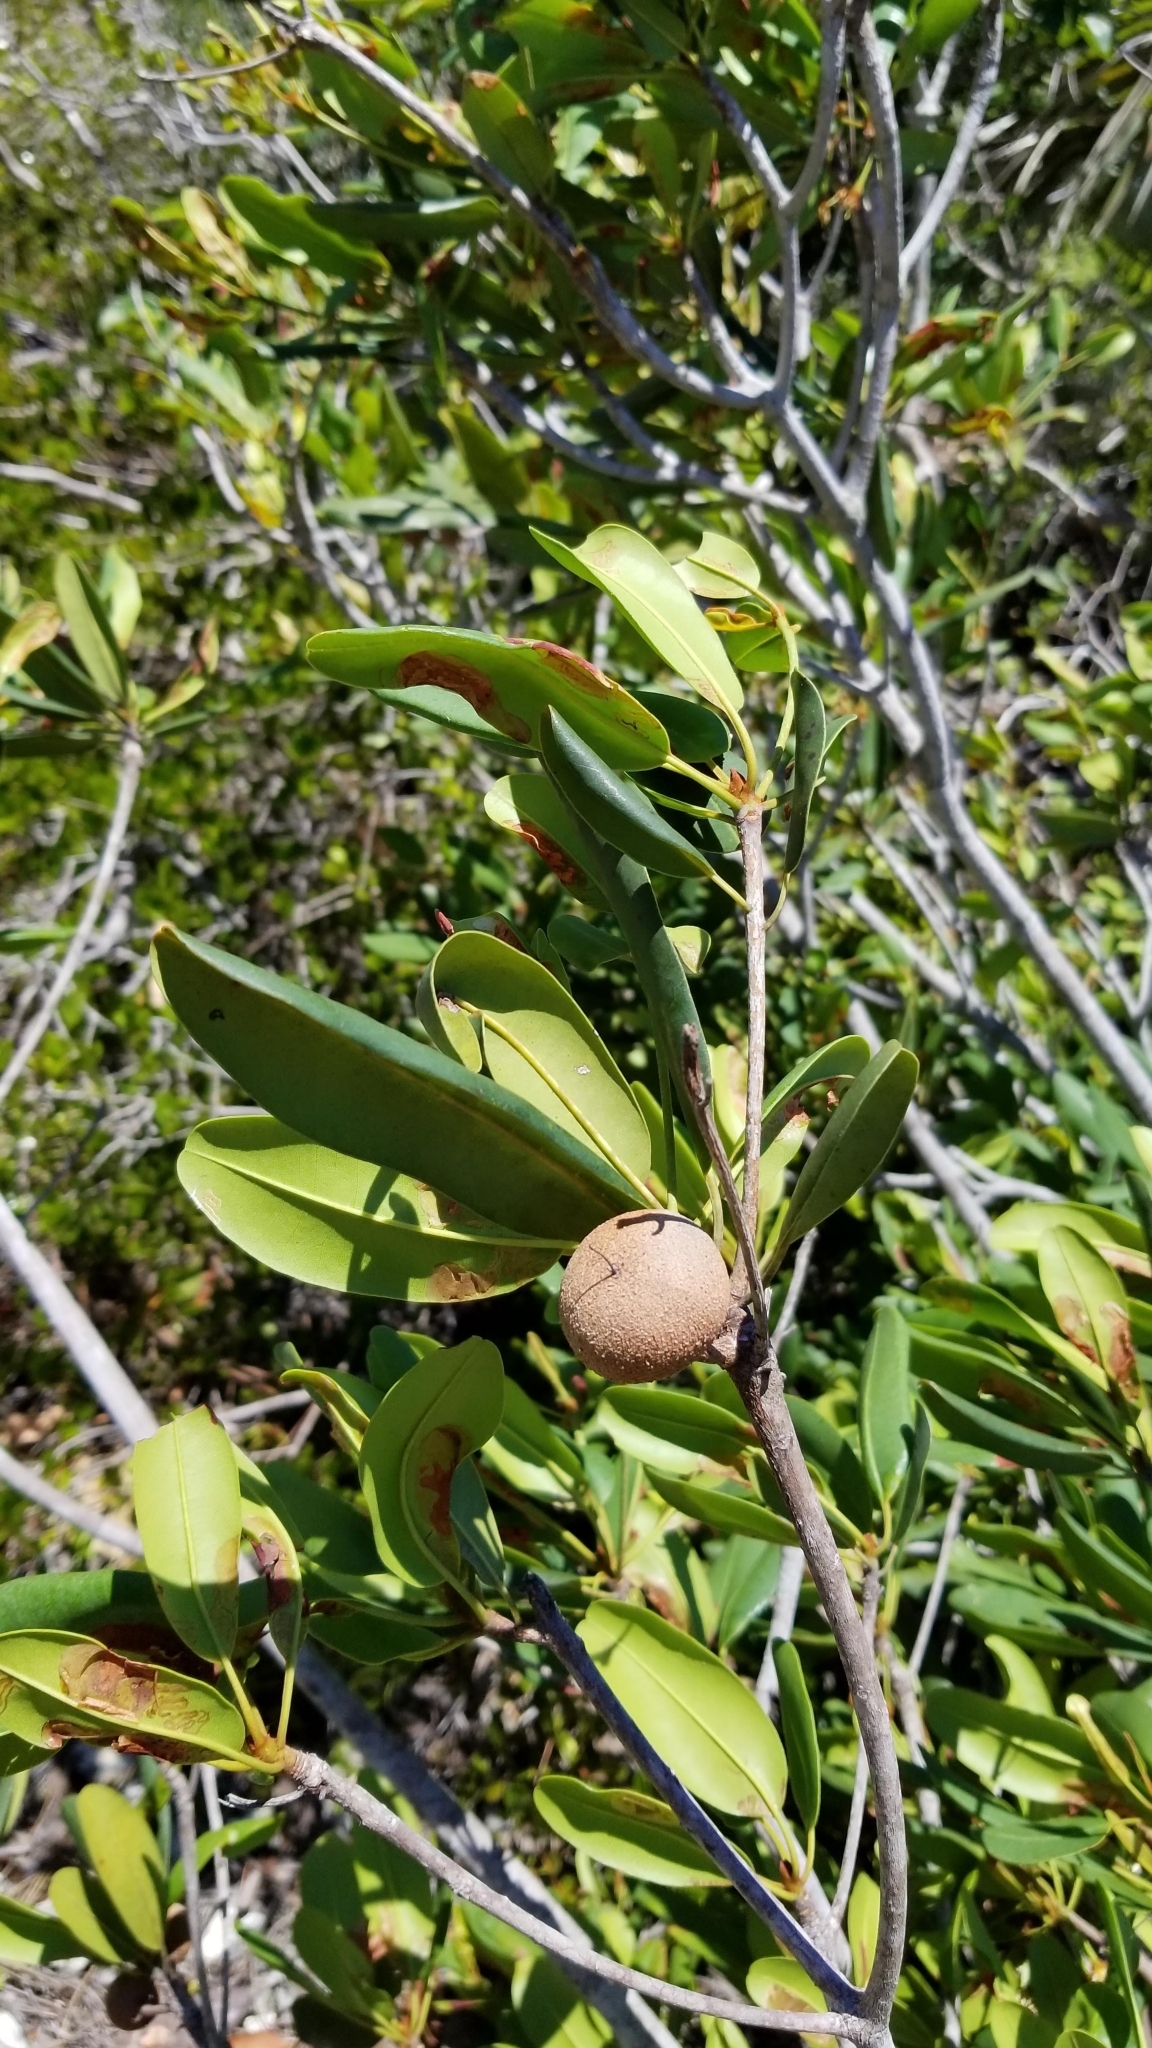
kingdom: Plantae
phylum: Tracheophyta
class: Magnoliopsida
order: Ericales
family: Sapotaceae
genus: Manilkara
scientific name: Manilkara jaimiqui
